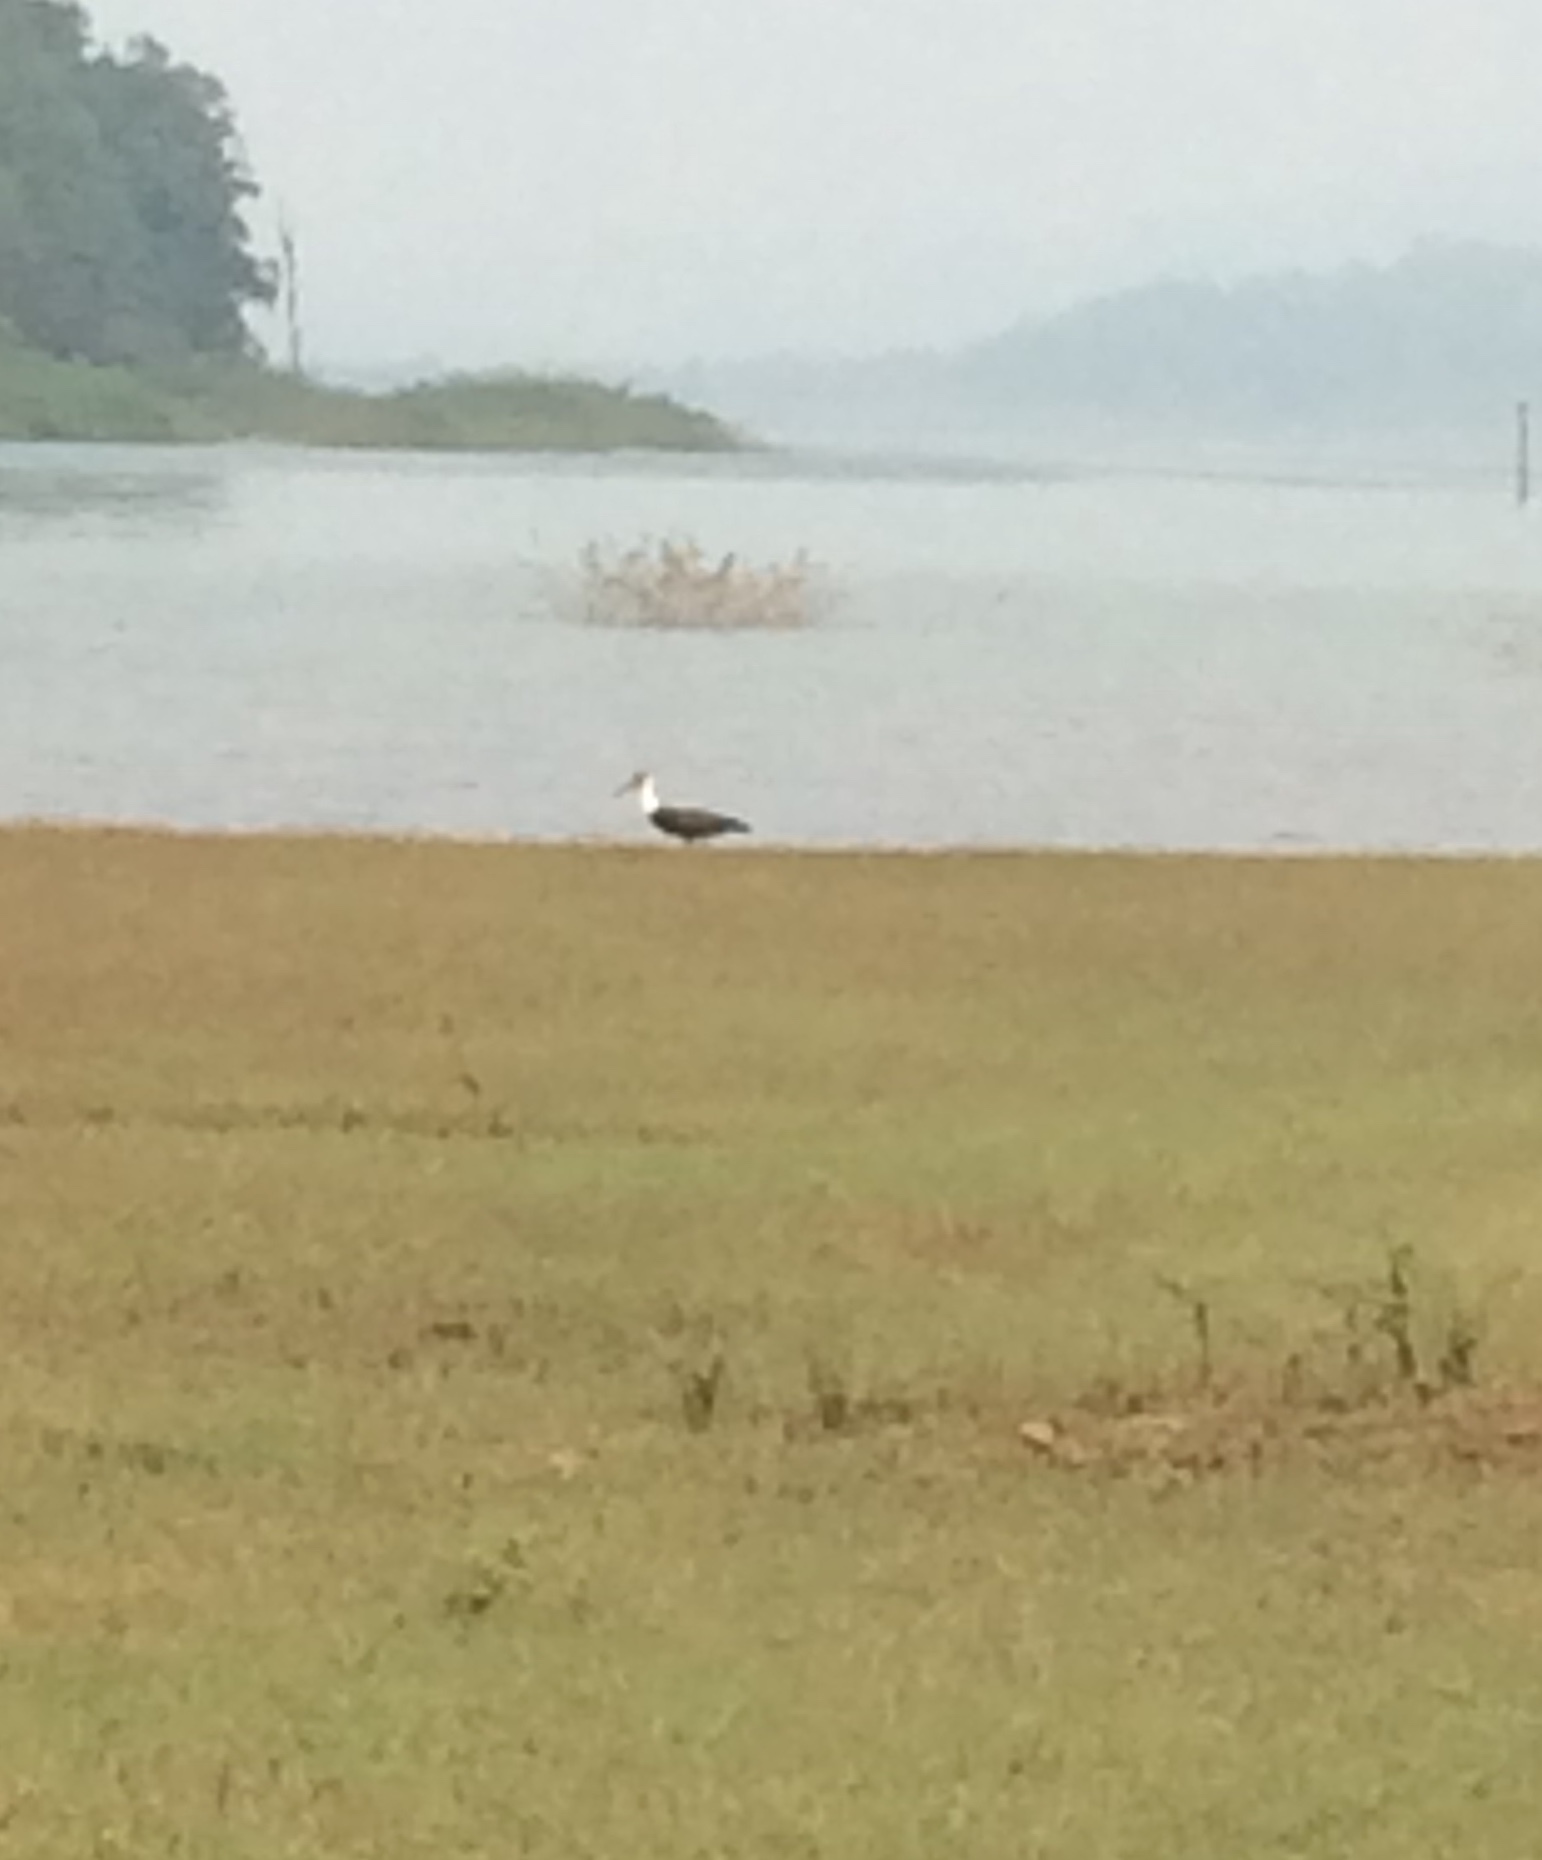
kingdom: Animalia
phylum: Chordata
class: Aves
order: Ciconiiformes
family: Ciconiidae
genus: Ciconia
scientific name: Ciconia episcopus
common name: Woolly-necked stork
